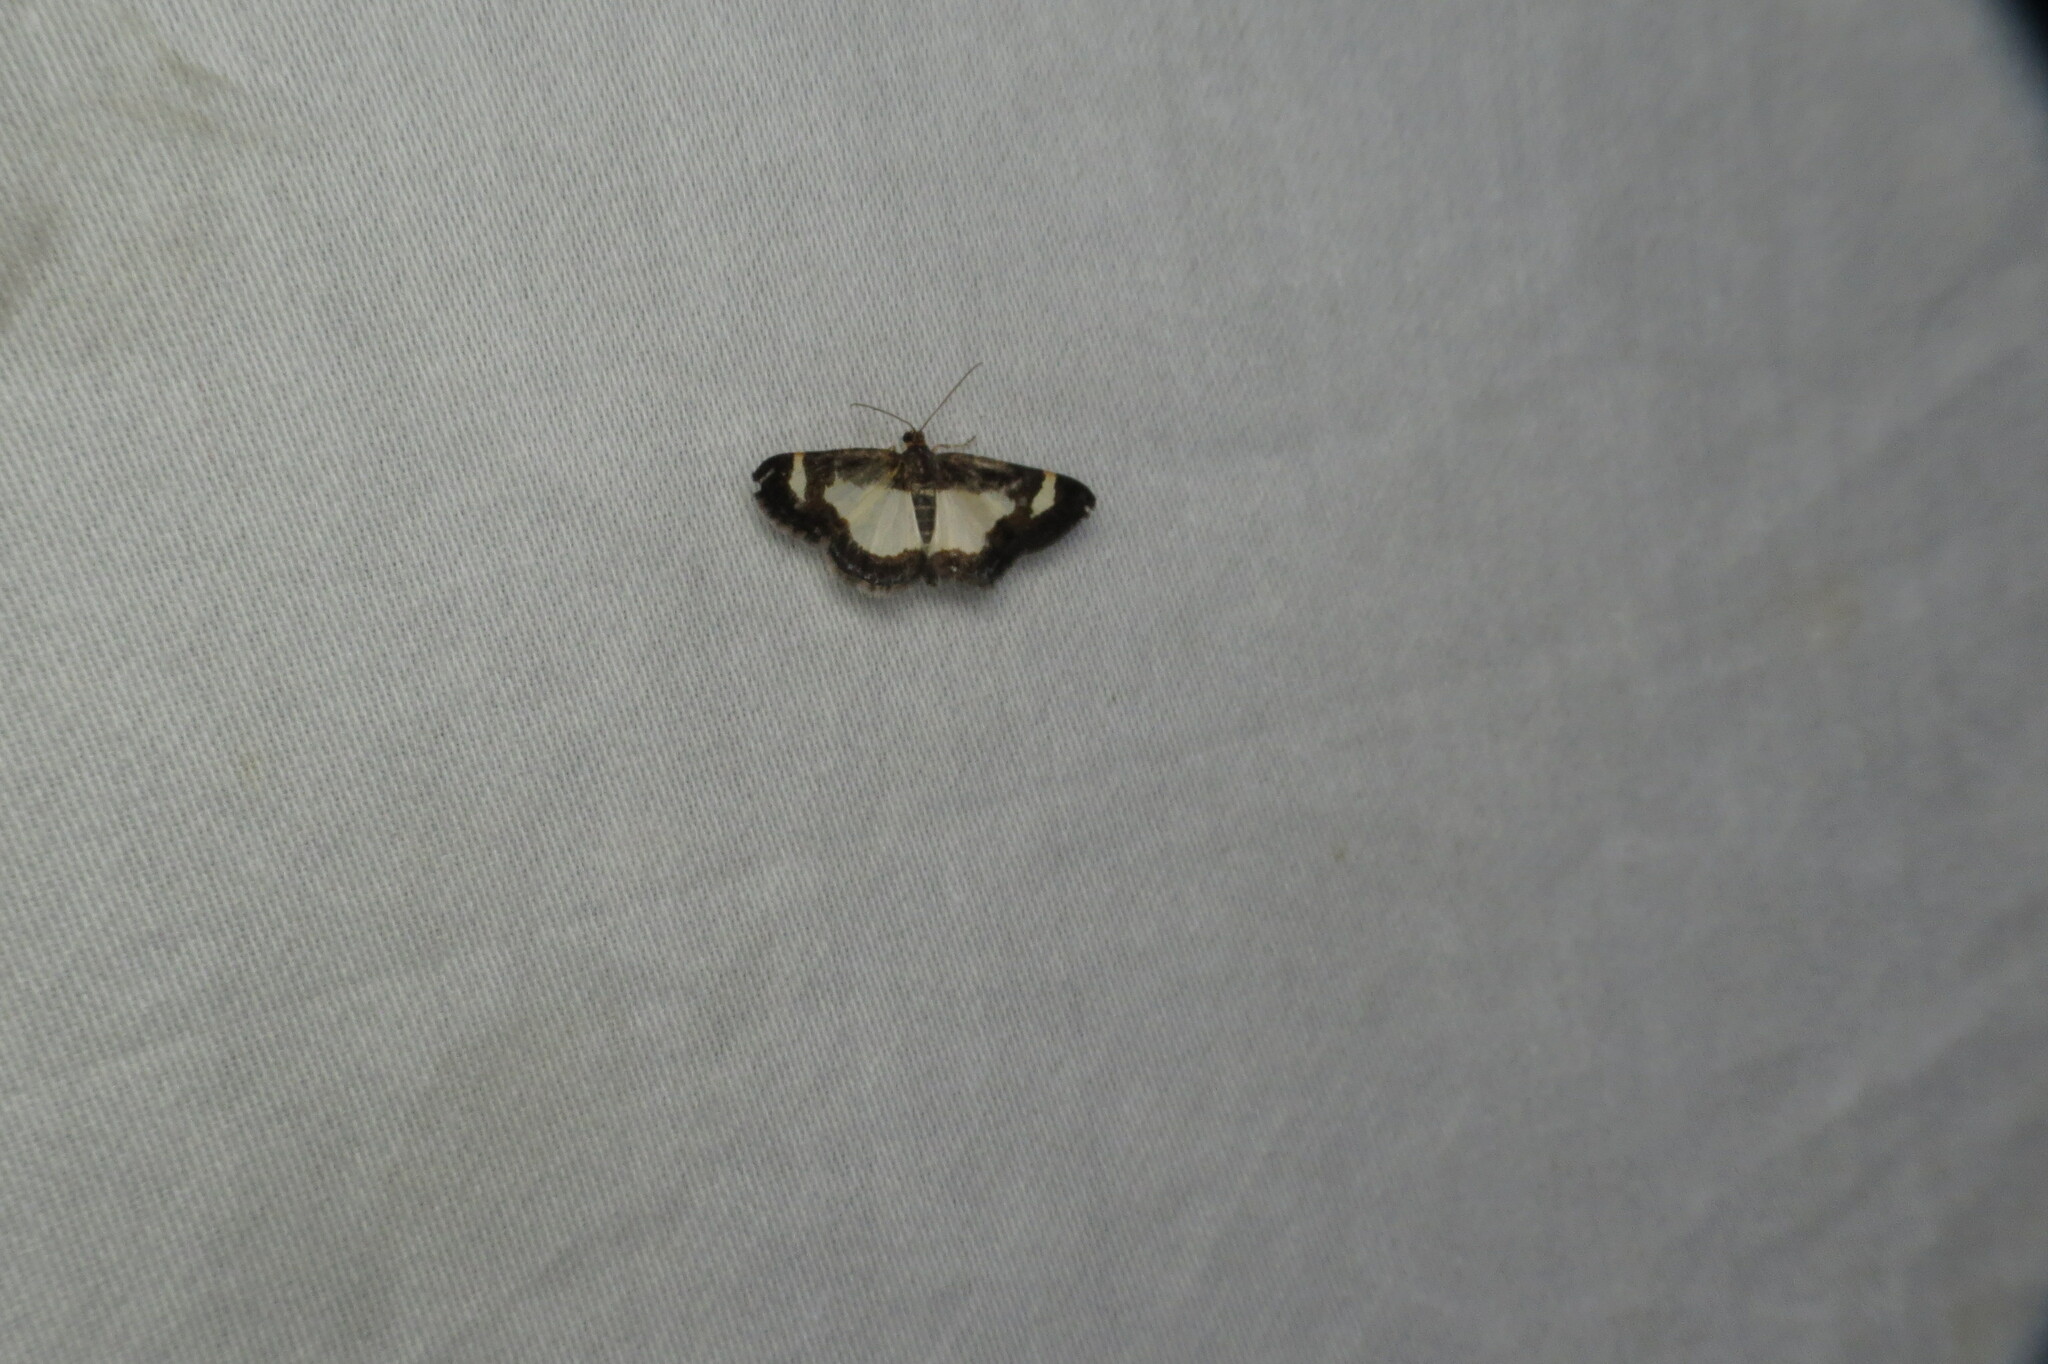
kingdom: Animalia
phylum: Arthropoda
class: Insecta
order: Lepidoptera
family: Geometridae
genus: Heliomata
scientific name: Heliomata cycladata
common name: Common spring moth
